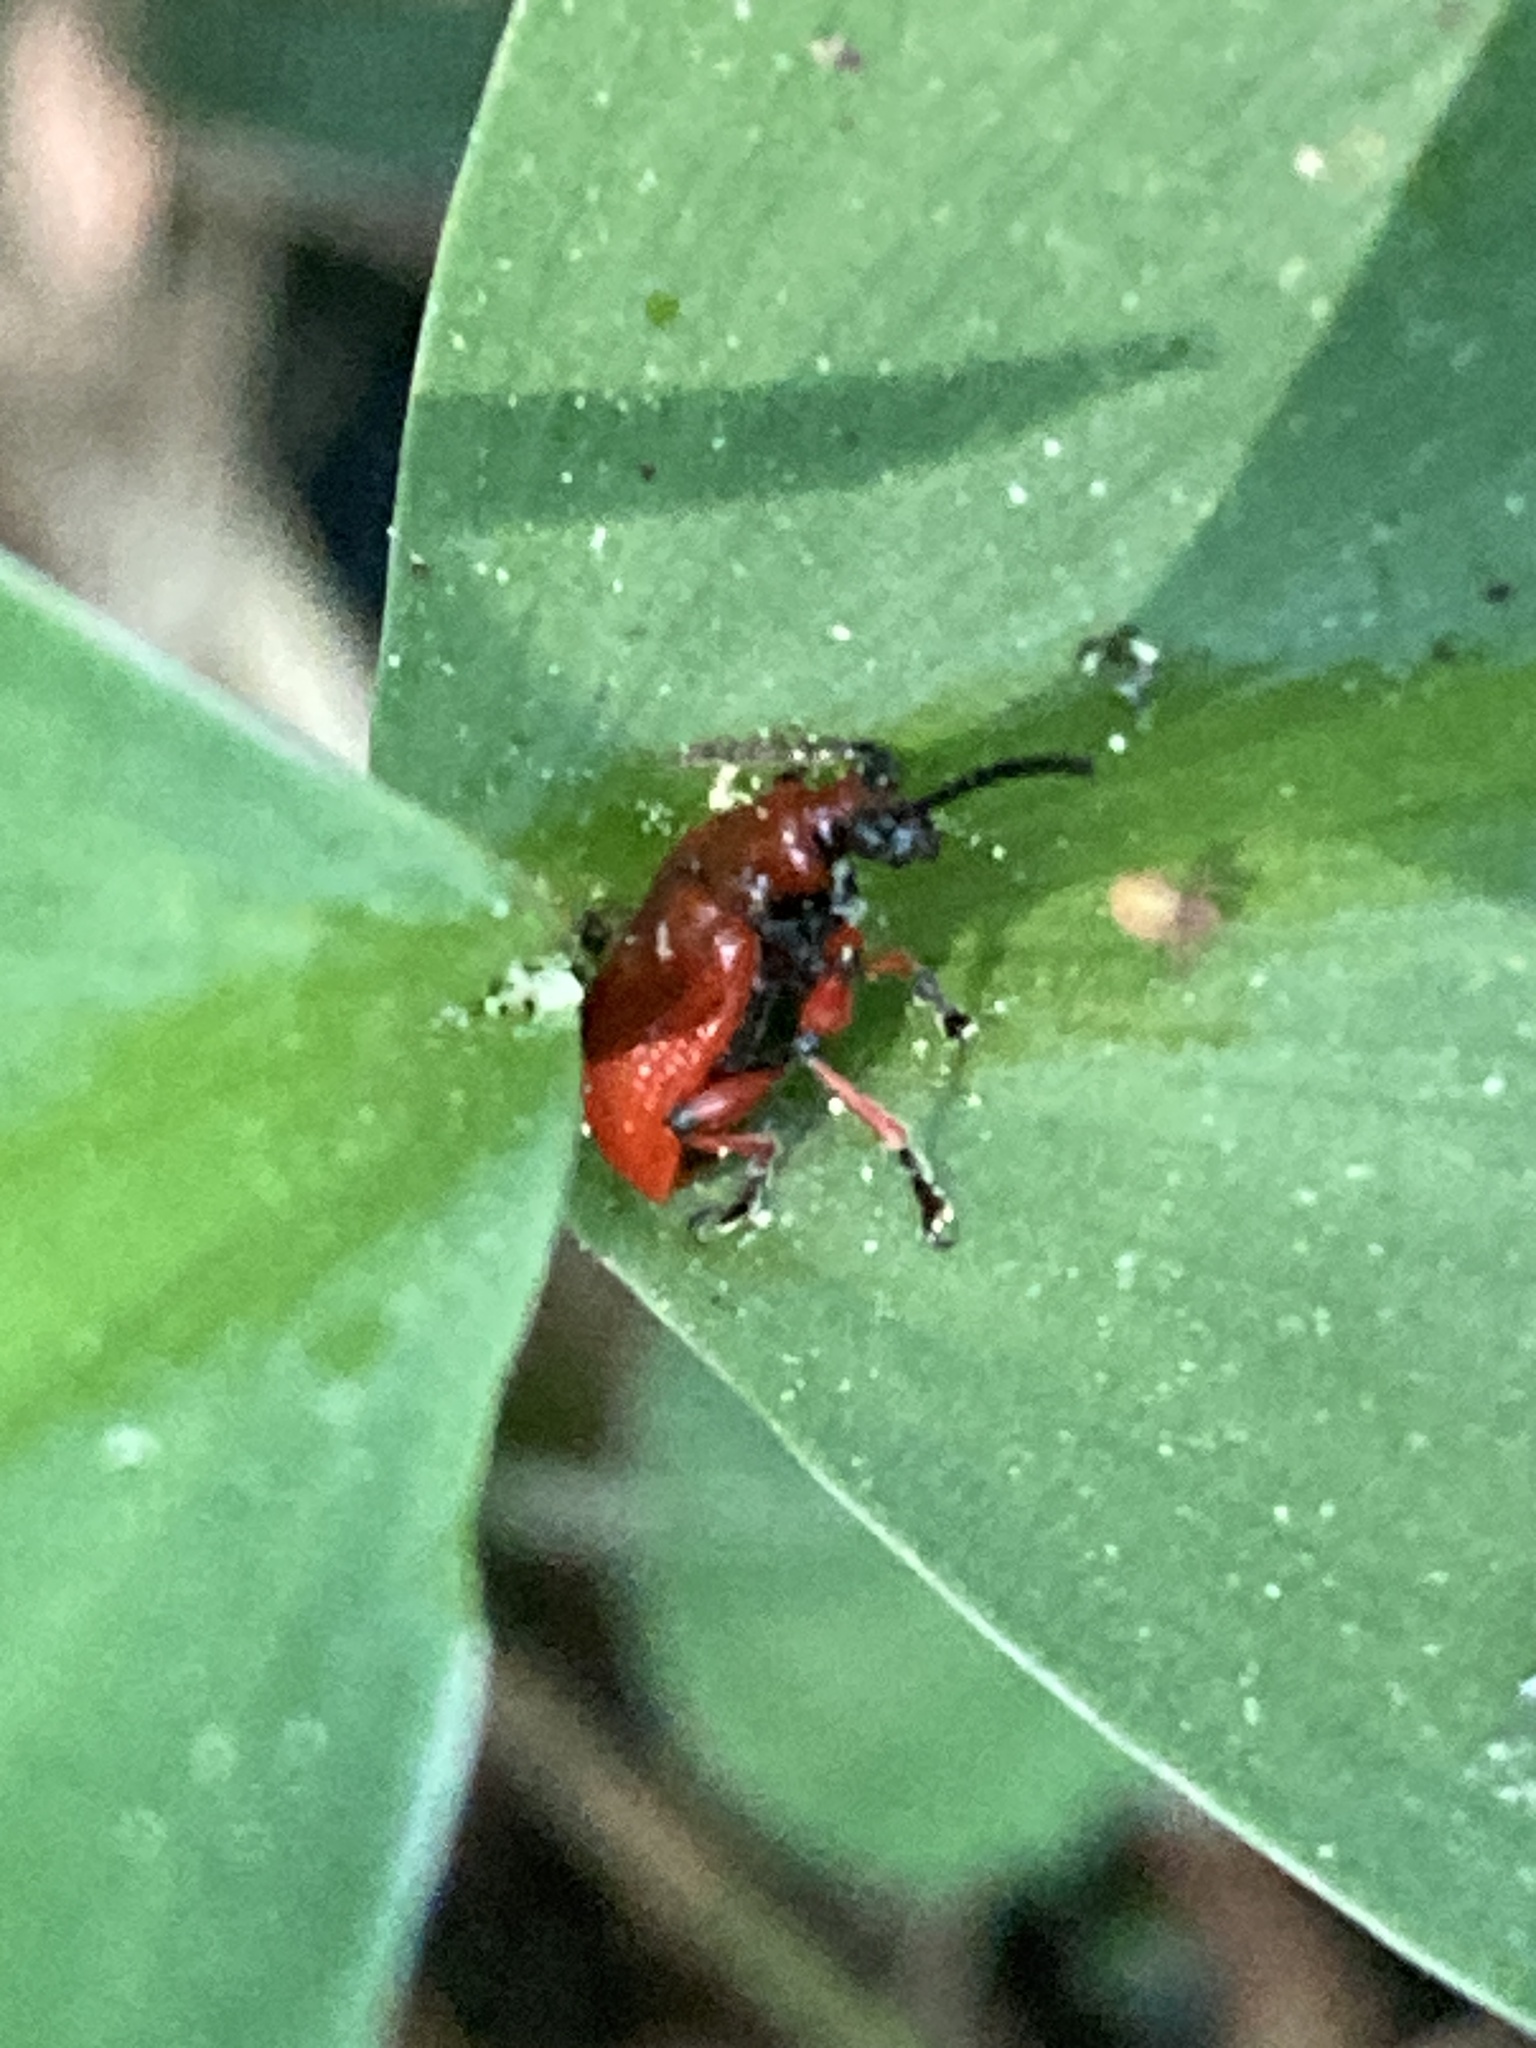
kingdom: Animalia
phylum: Arthropoda
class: Insecta
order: Coleoptera
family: Chrysomelidae
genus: Lilioceris
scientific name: Lilioceris merdigera
